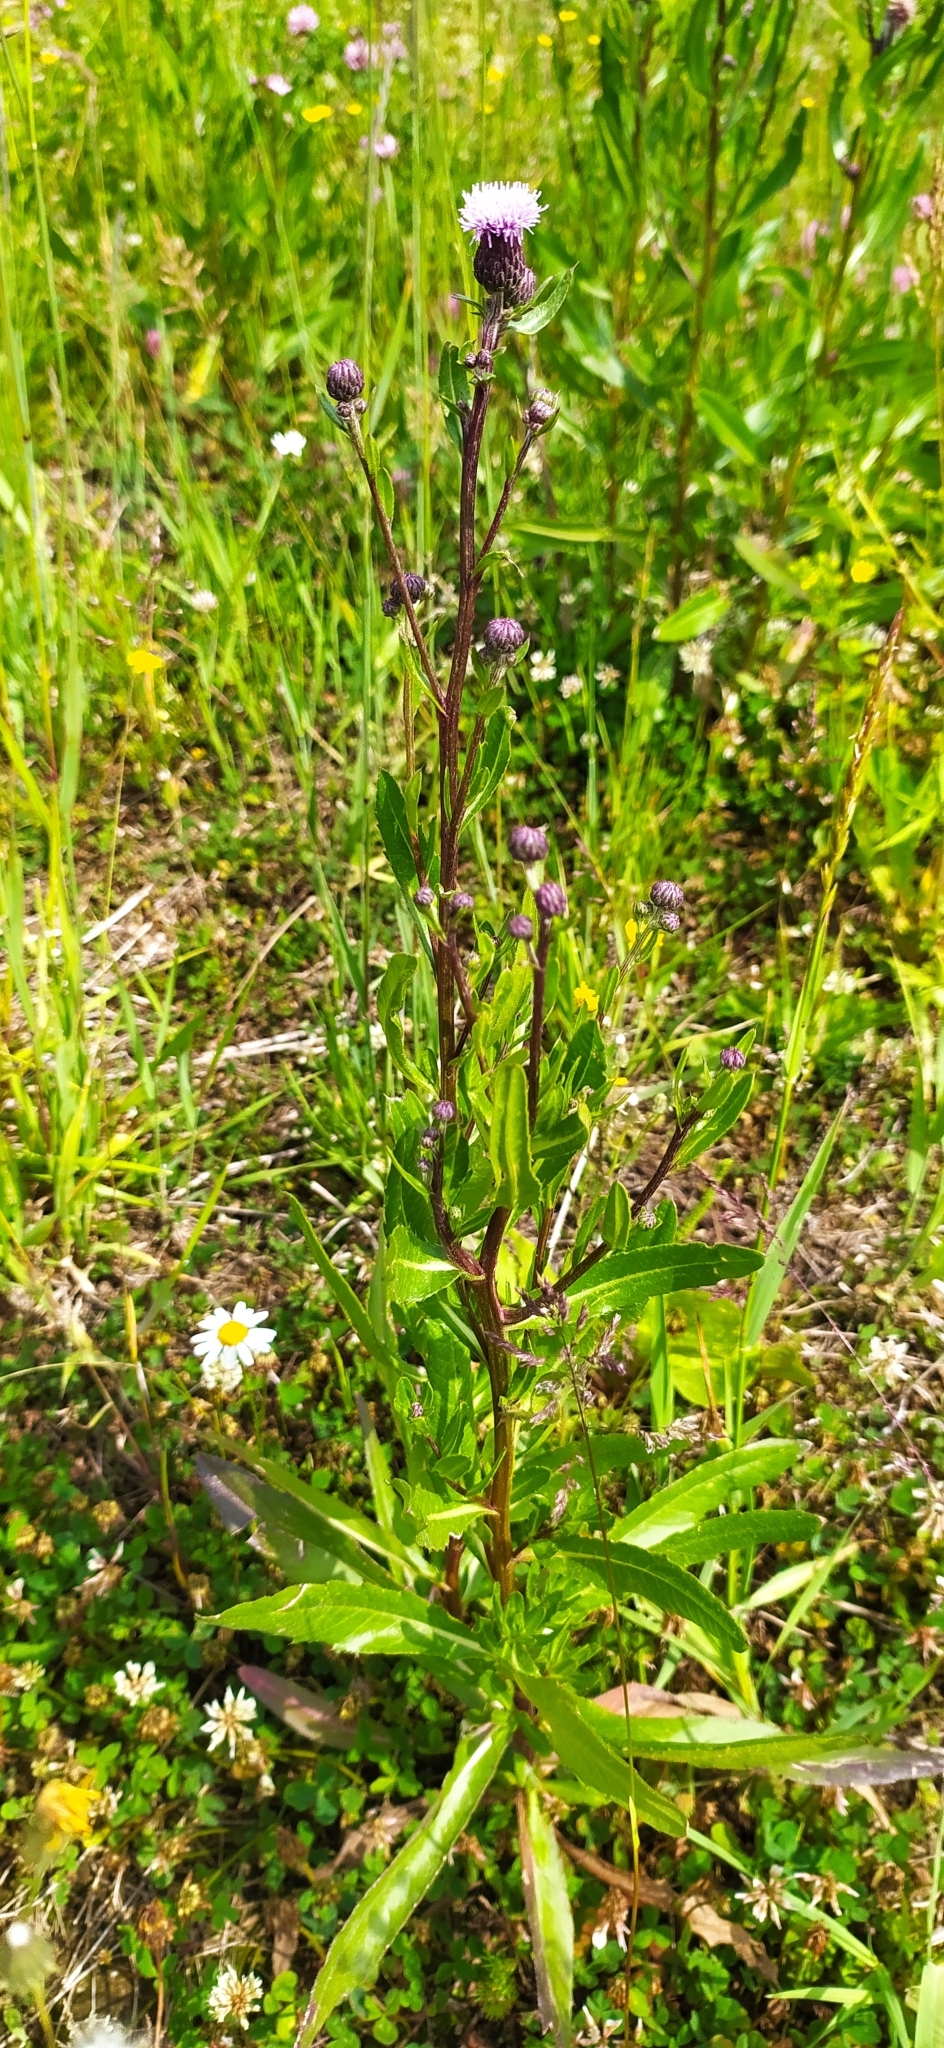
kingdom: Plantae
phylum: Tracheophyta
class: Magnoliopsida
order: Asterales
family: Asteraceae
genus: Cirsium
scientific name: Cirsium arvense
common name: Creeping thistle
